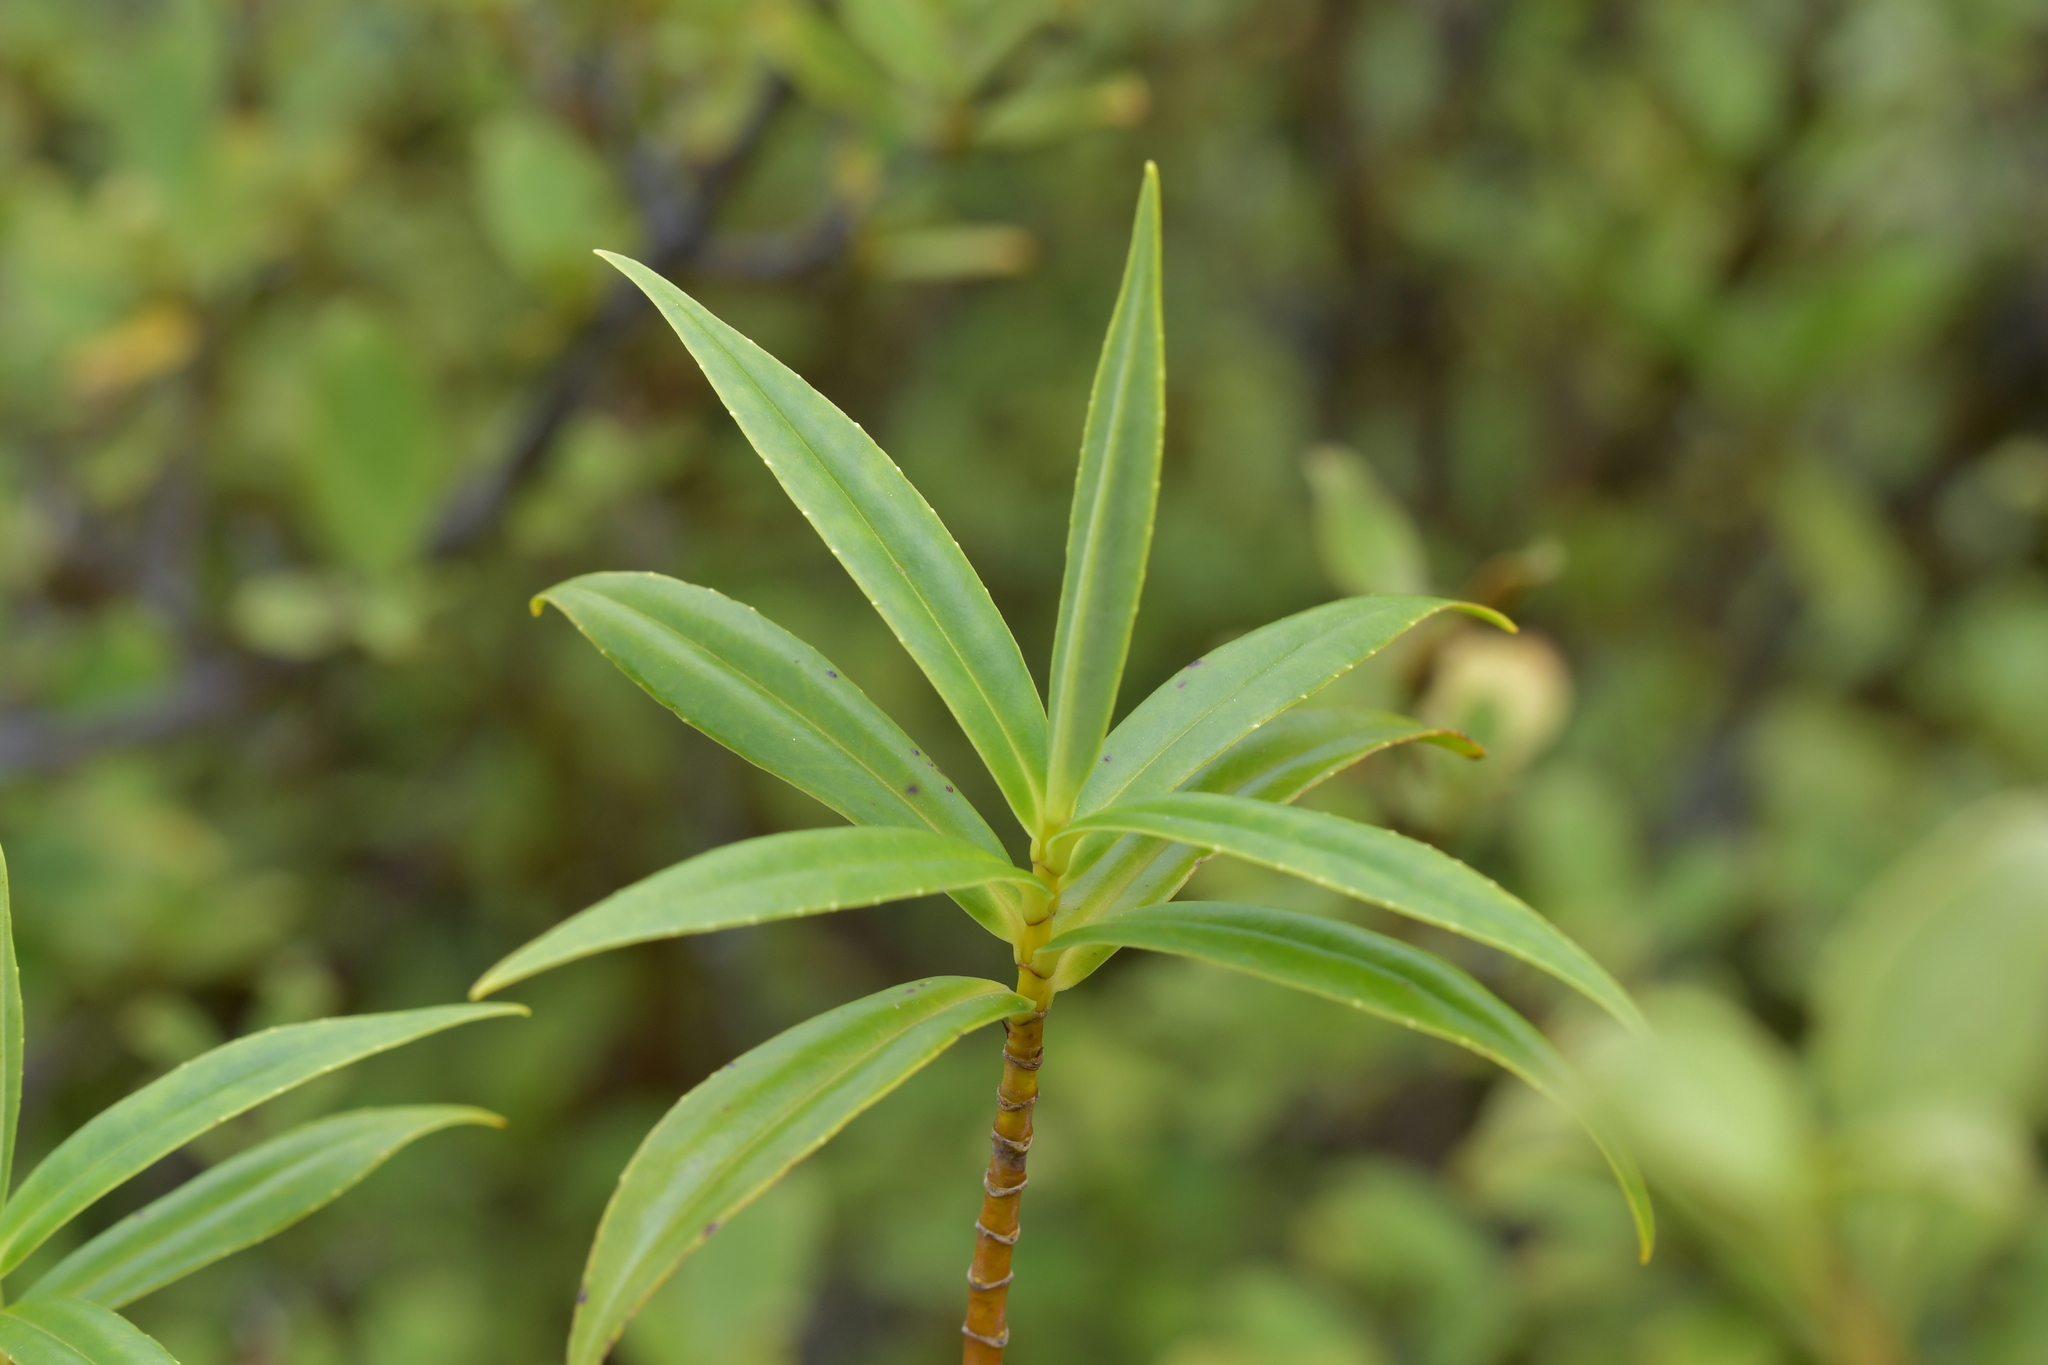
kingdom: Plantae
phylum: Tracheophyta
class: Magnoliopsida
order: Lamiales
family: Plantaginaceae
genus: Veronica
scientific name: Veronica salicifolia
